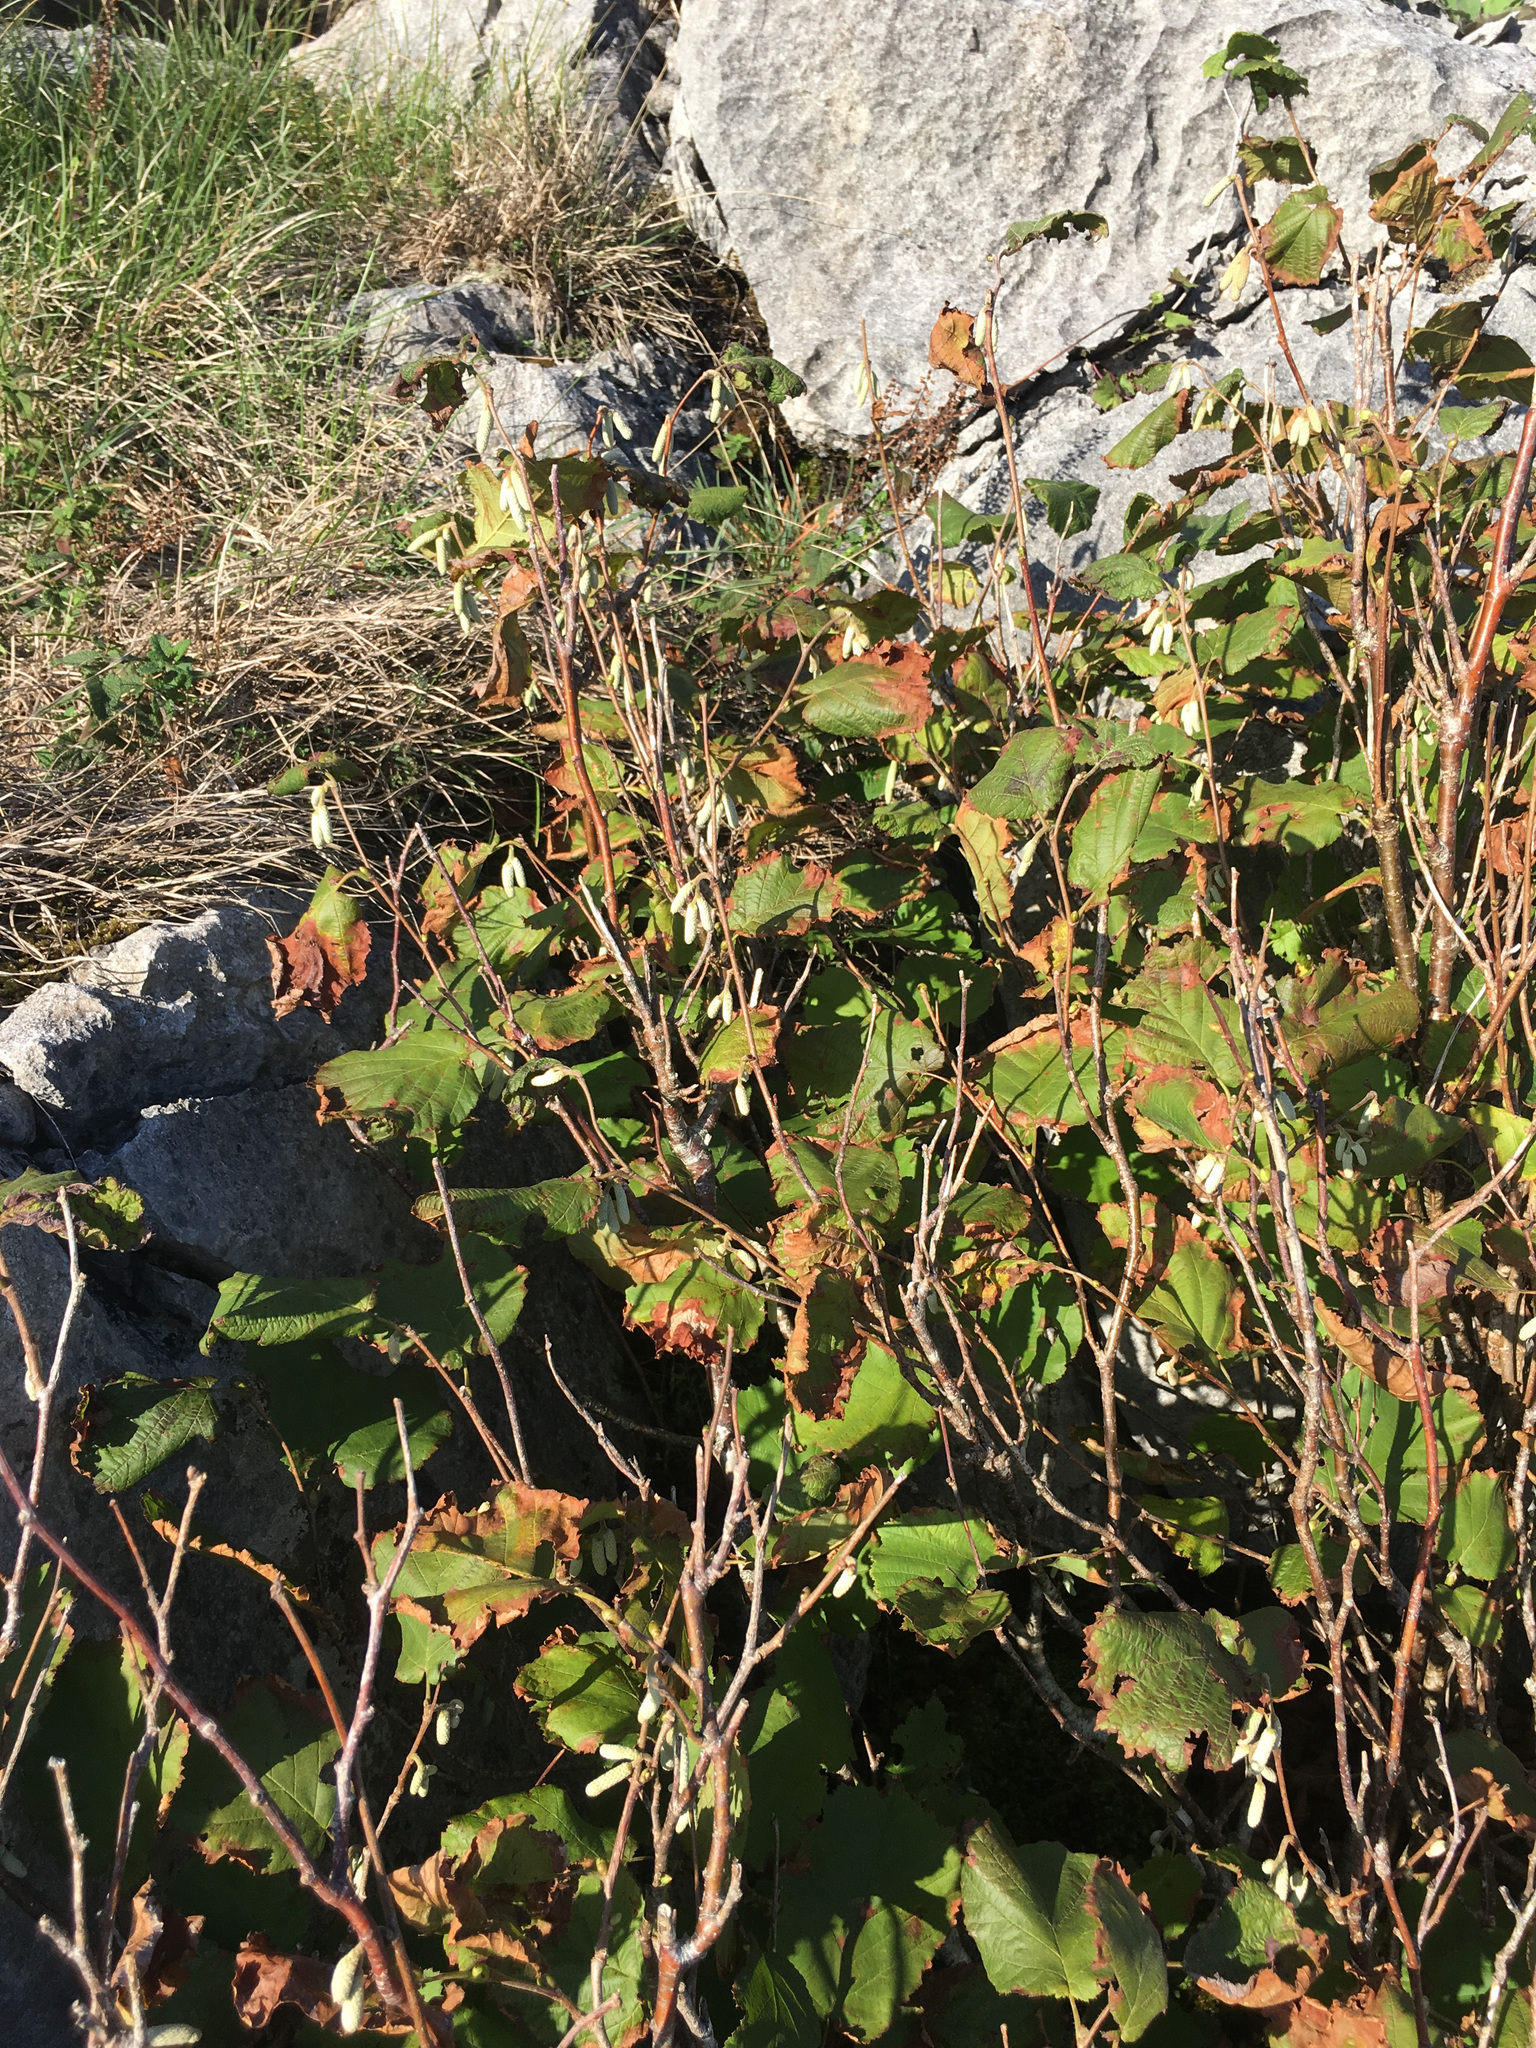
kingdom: Plantae
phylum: Tracheophyta
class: Magnoliopsida
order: Fagales
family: Betulaceae
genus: Corylus
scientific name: Corylus avellana
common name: European hazel
